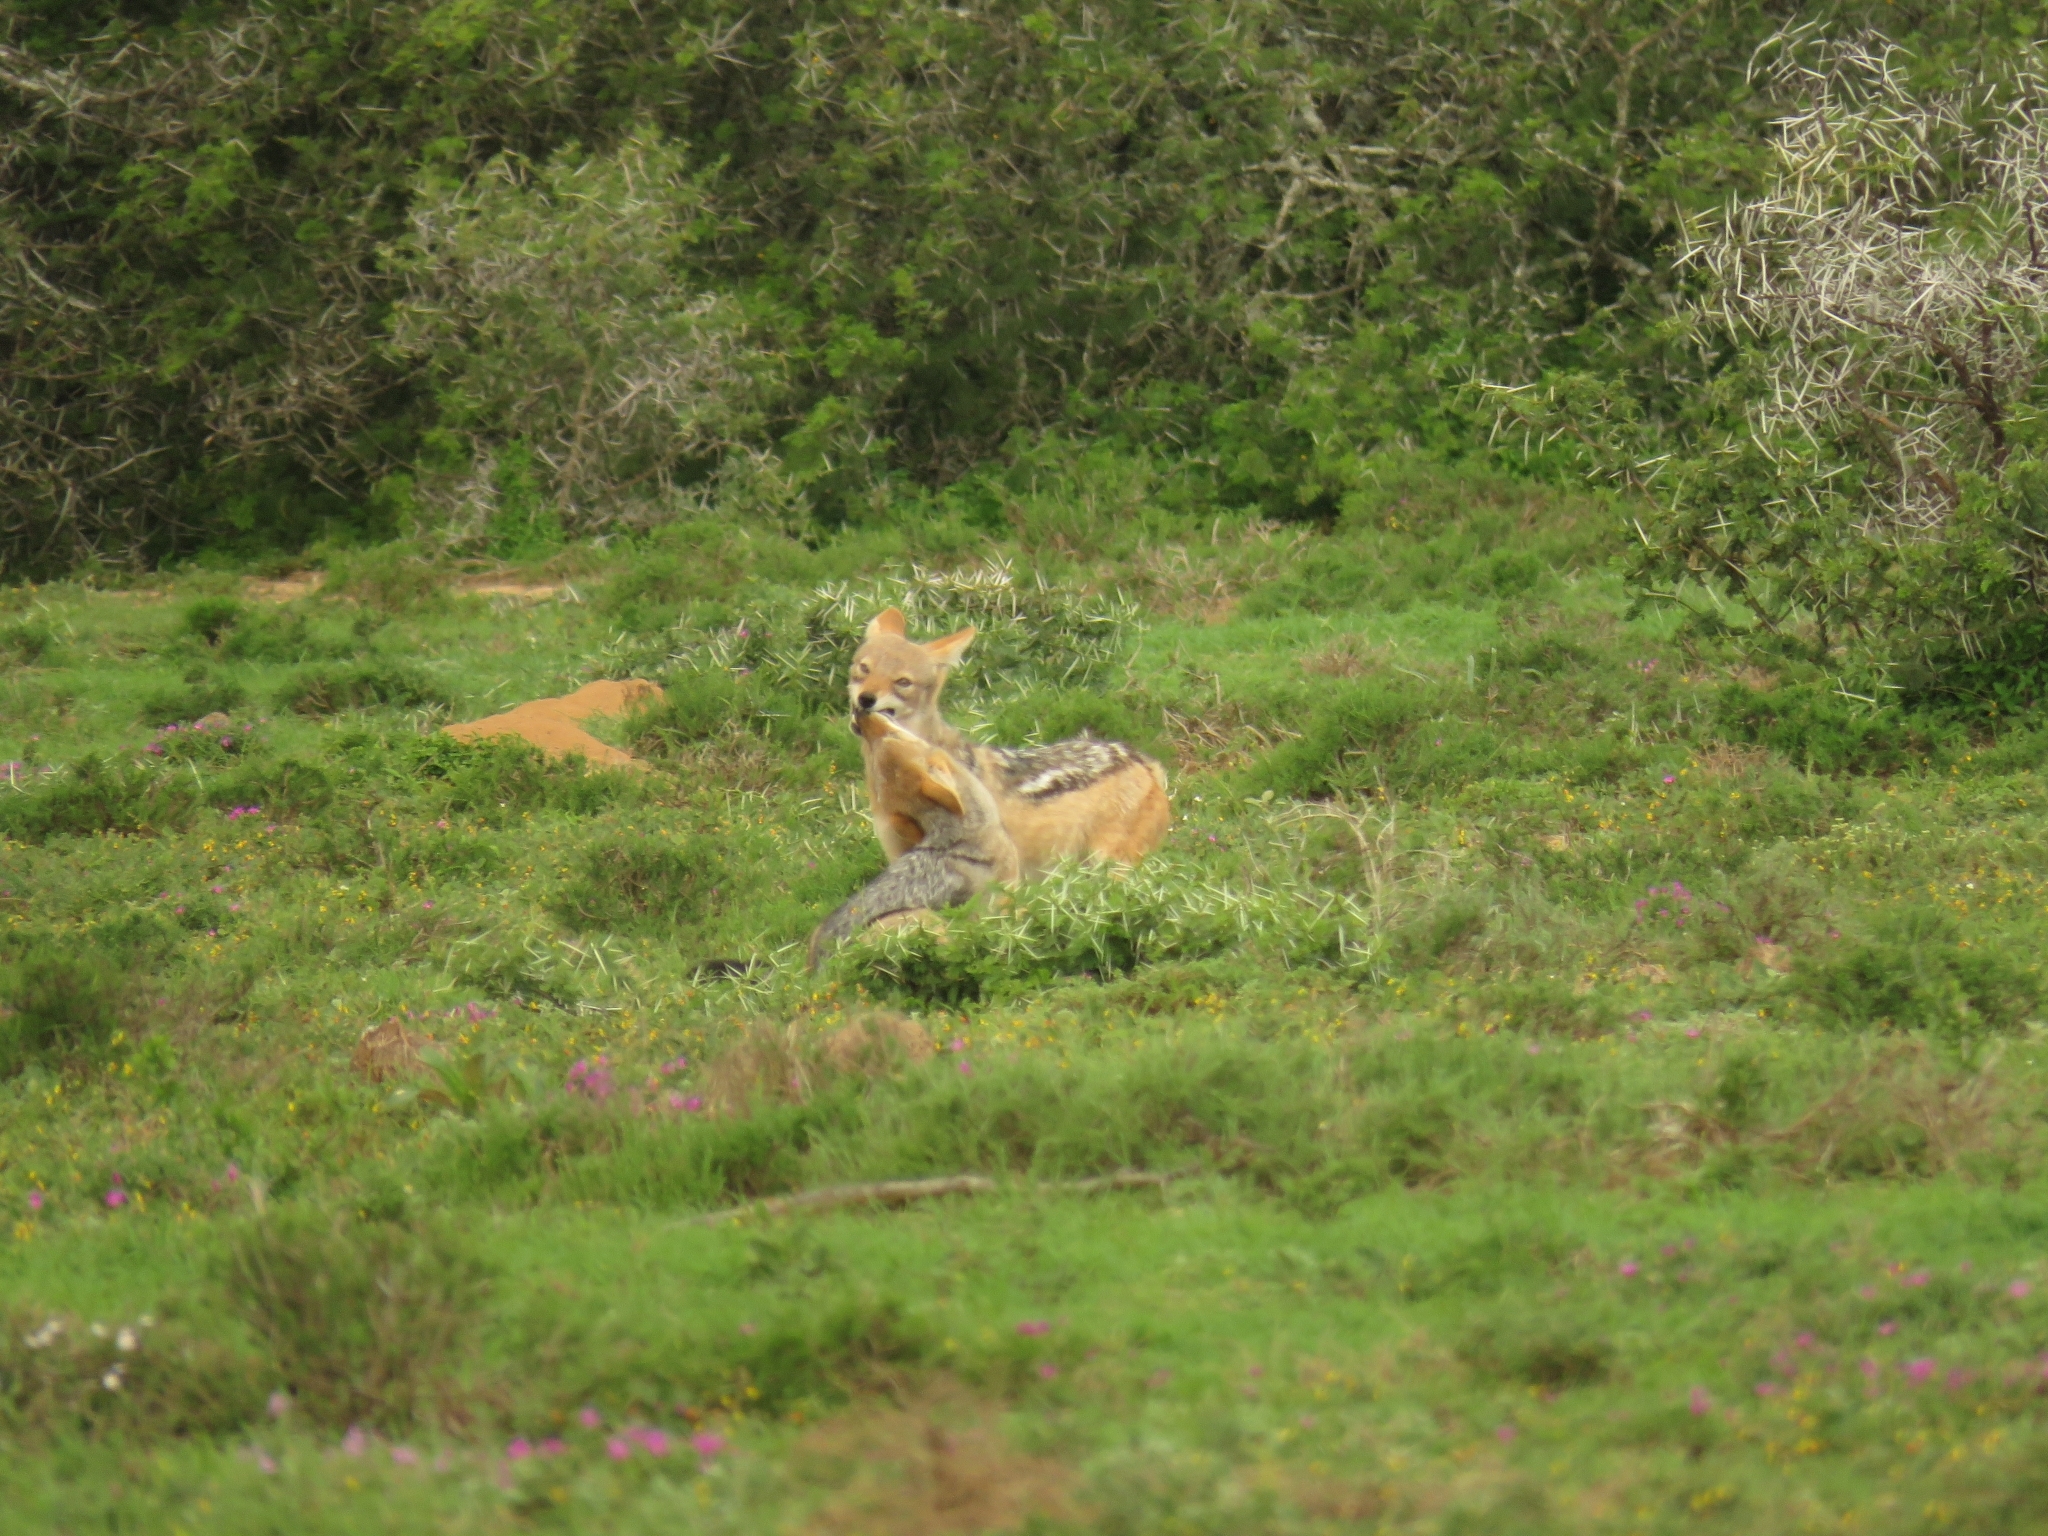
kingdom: Animalia
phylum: Chordata
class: Mammalia
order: Carnivora
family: Canidae
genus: Lupulella
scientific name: Lupulella
